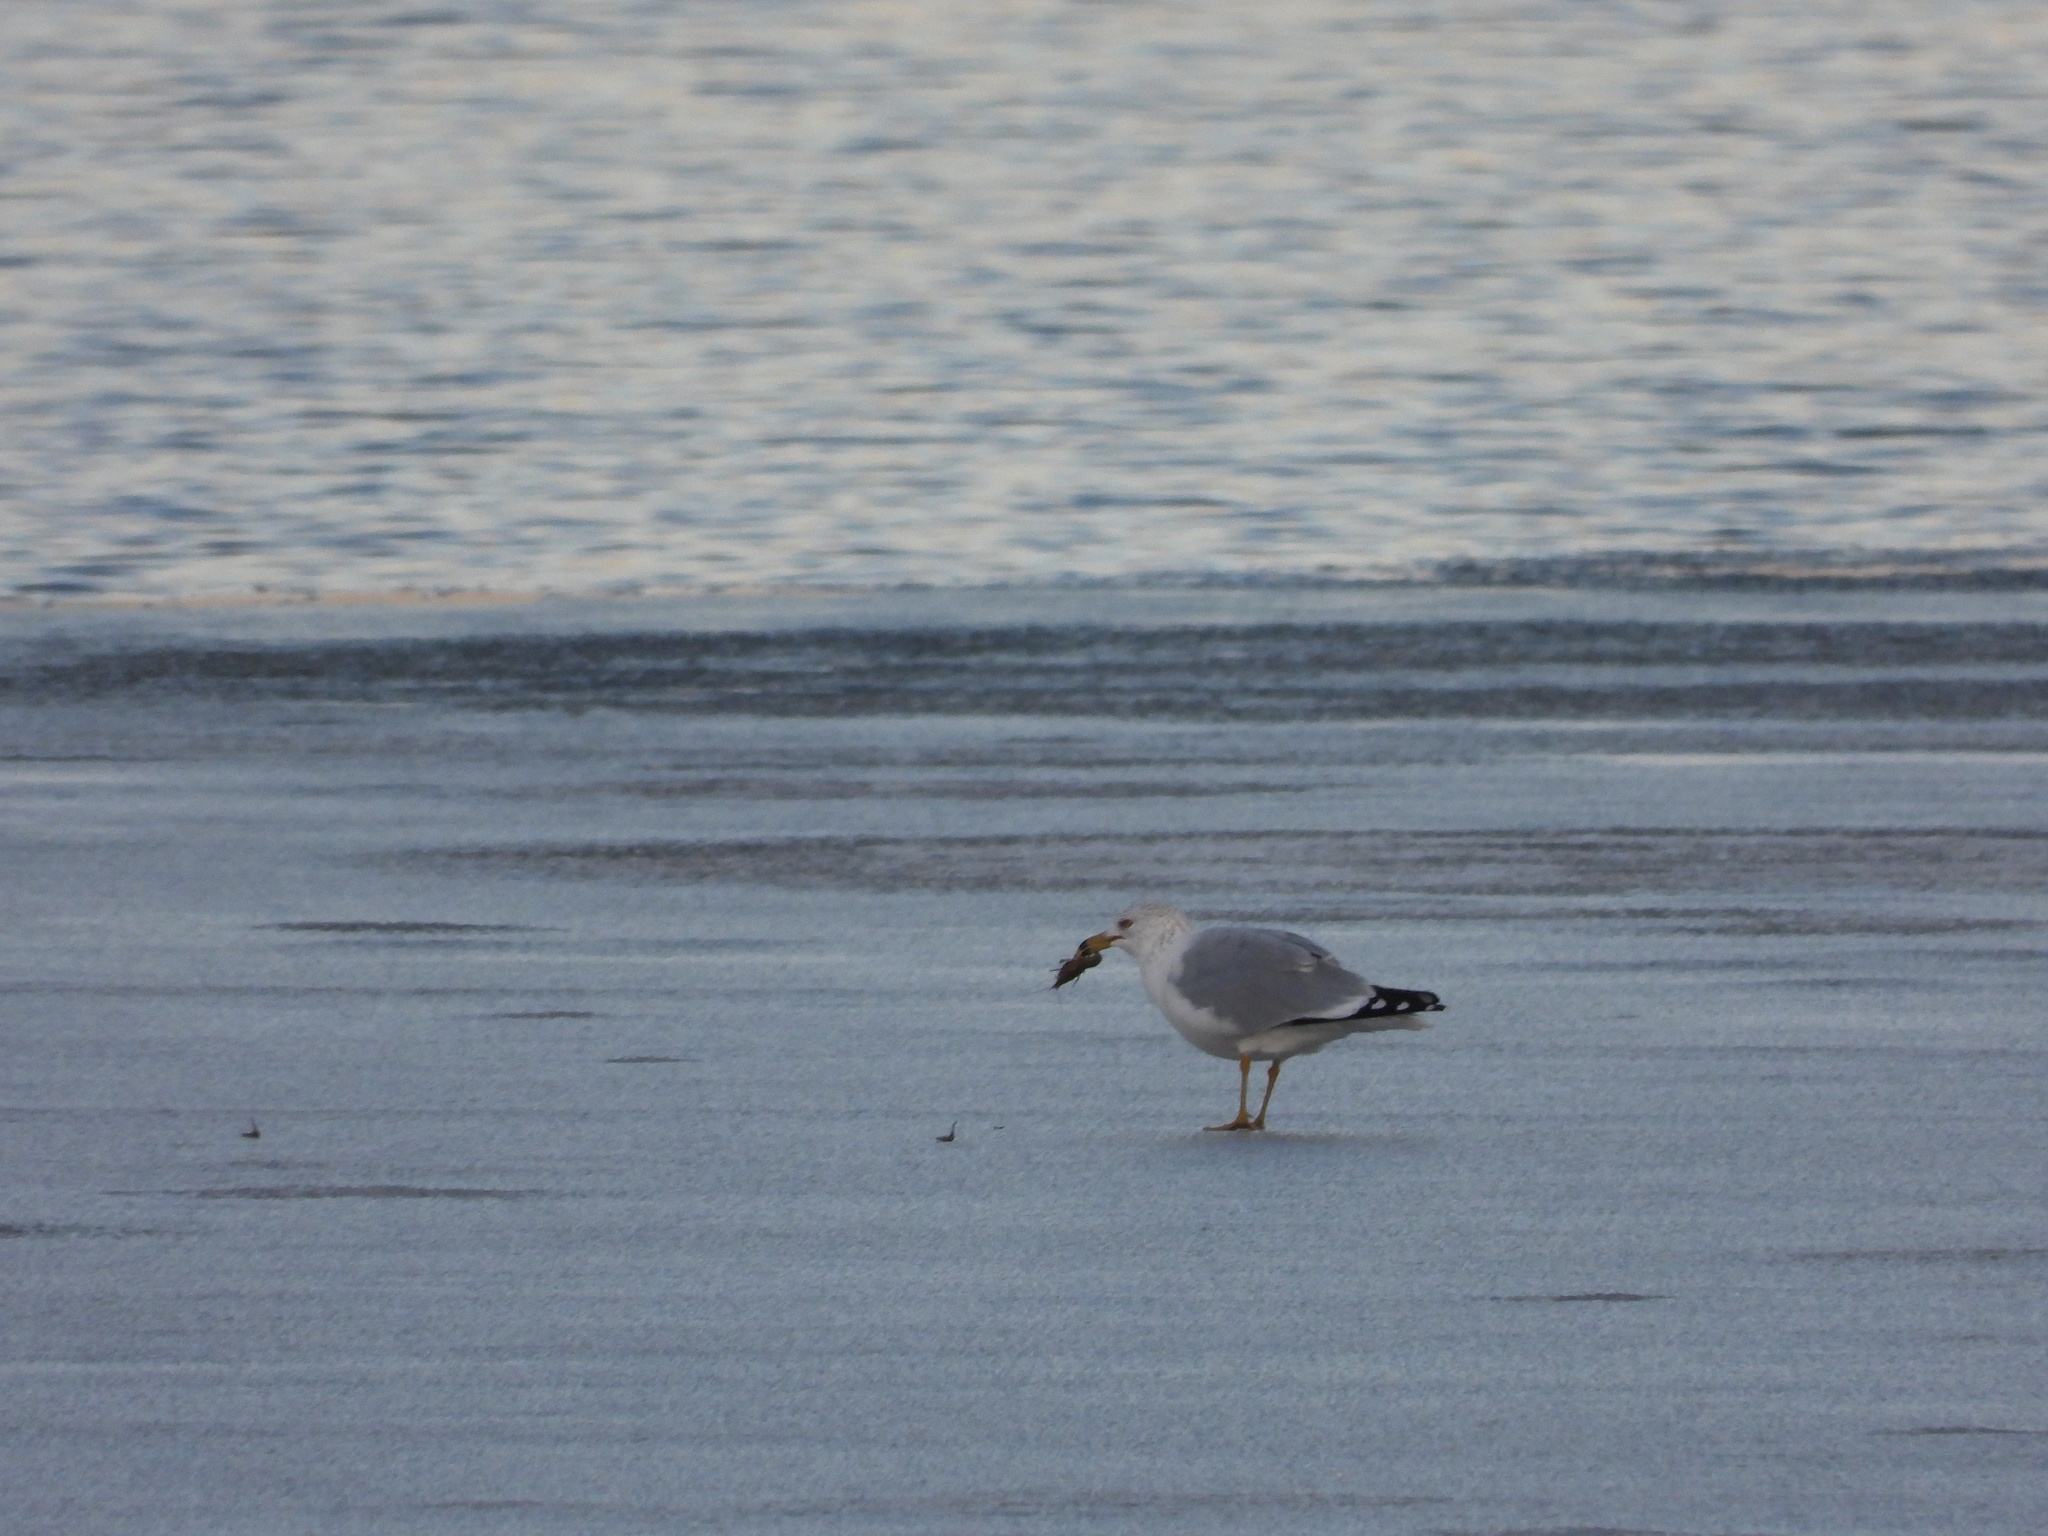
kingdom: Animalia
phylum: Chordata
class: Aves
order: Charadriiformes
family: Laridae
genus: Larus
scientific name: Larus delawarensis
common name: Ring-billed gull
